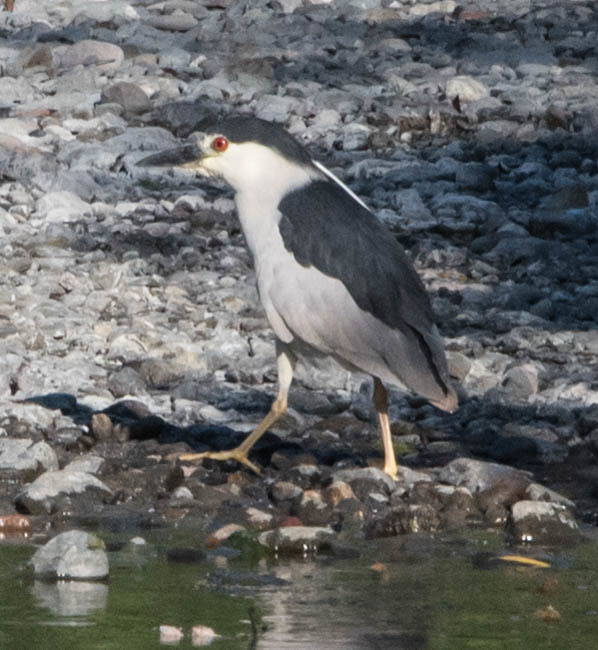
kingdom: Animalia
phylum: Chordata
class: Aves
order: Pelecaniformes
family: Ardeidae
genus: Nycticorax
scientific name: Nycticorax nycticorax
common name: Black-crowned night heron
